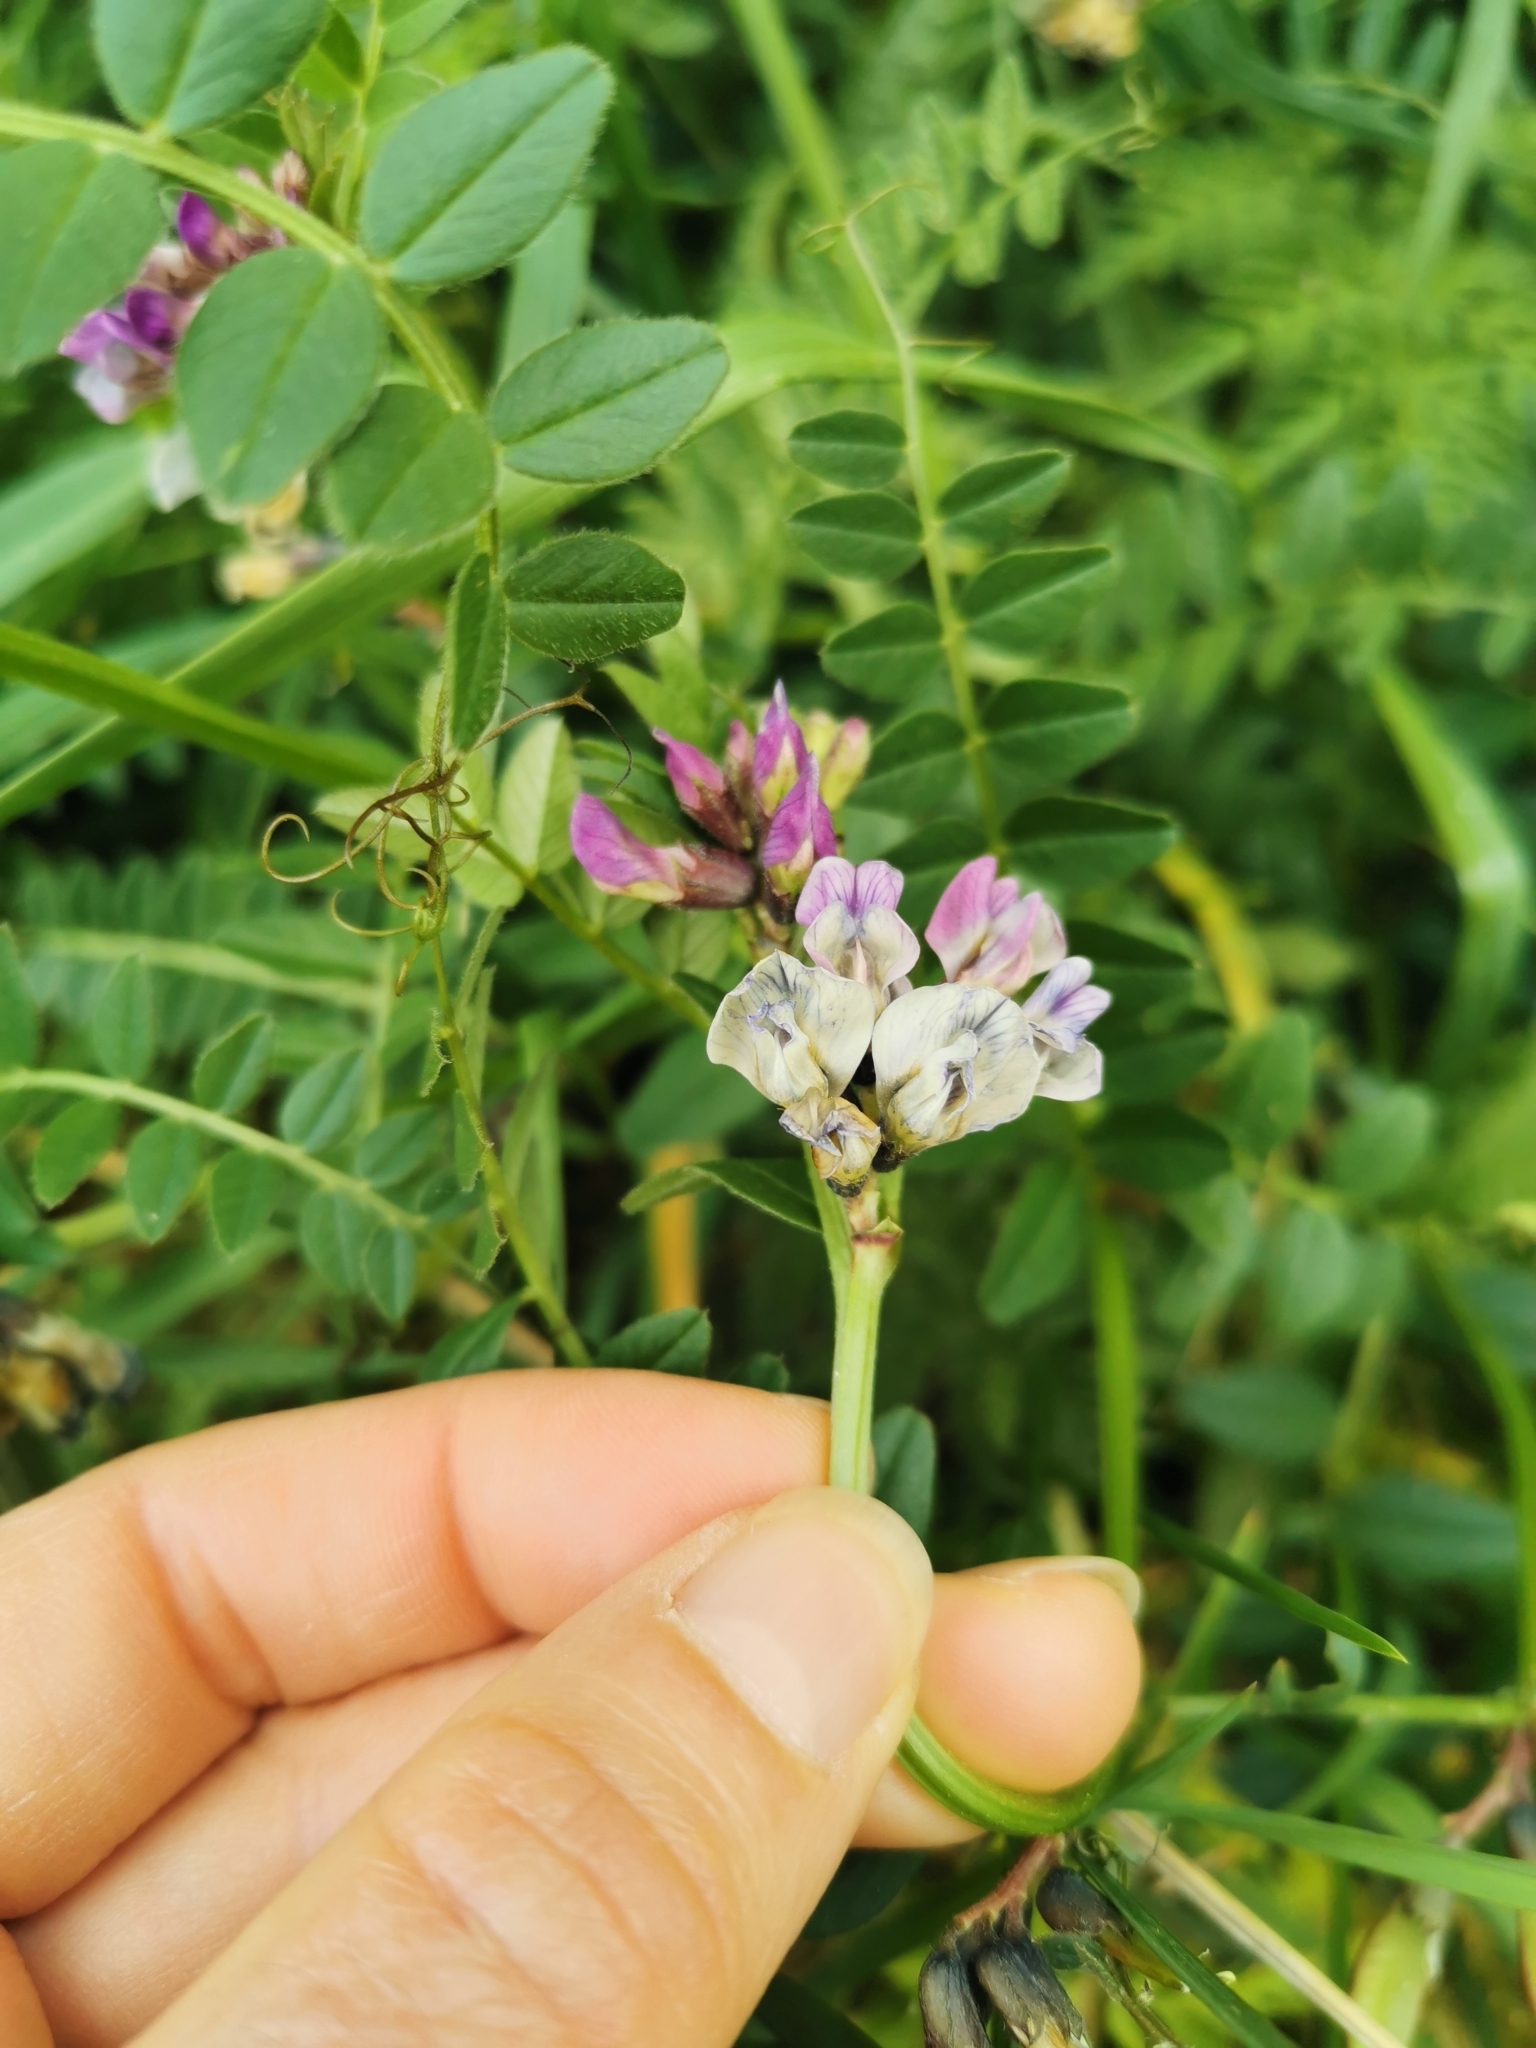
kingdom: Plantae
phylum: Tracheophyta
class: Magnoliopsida
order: Fabales
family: Fabaceae
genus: Vicia
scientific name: Vicia sepium
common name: Bush vetch
